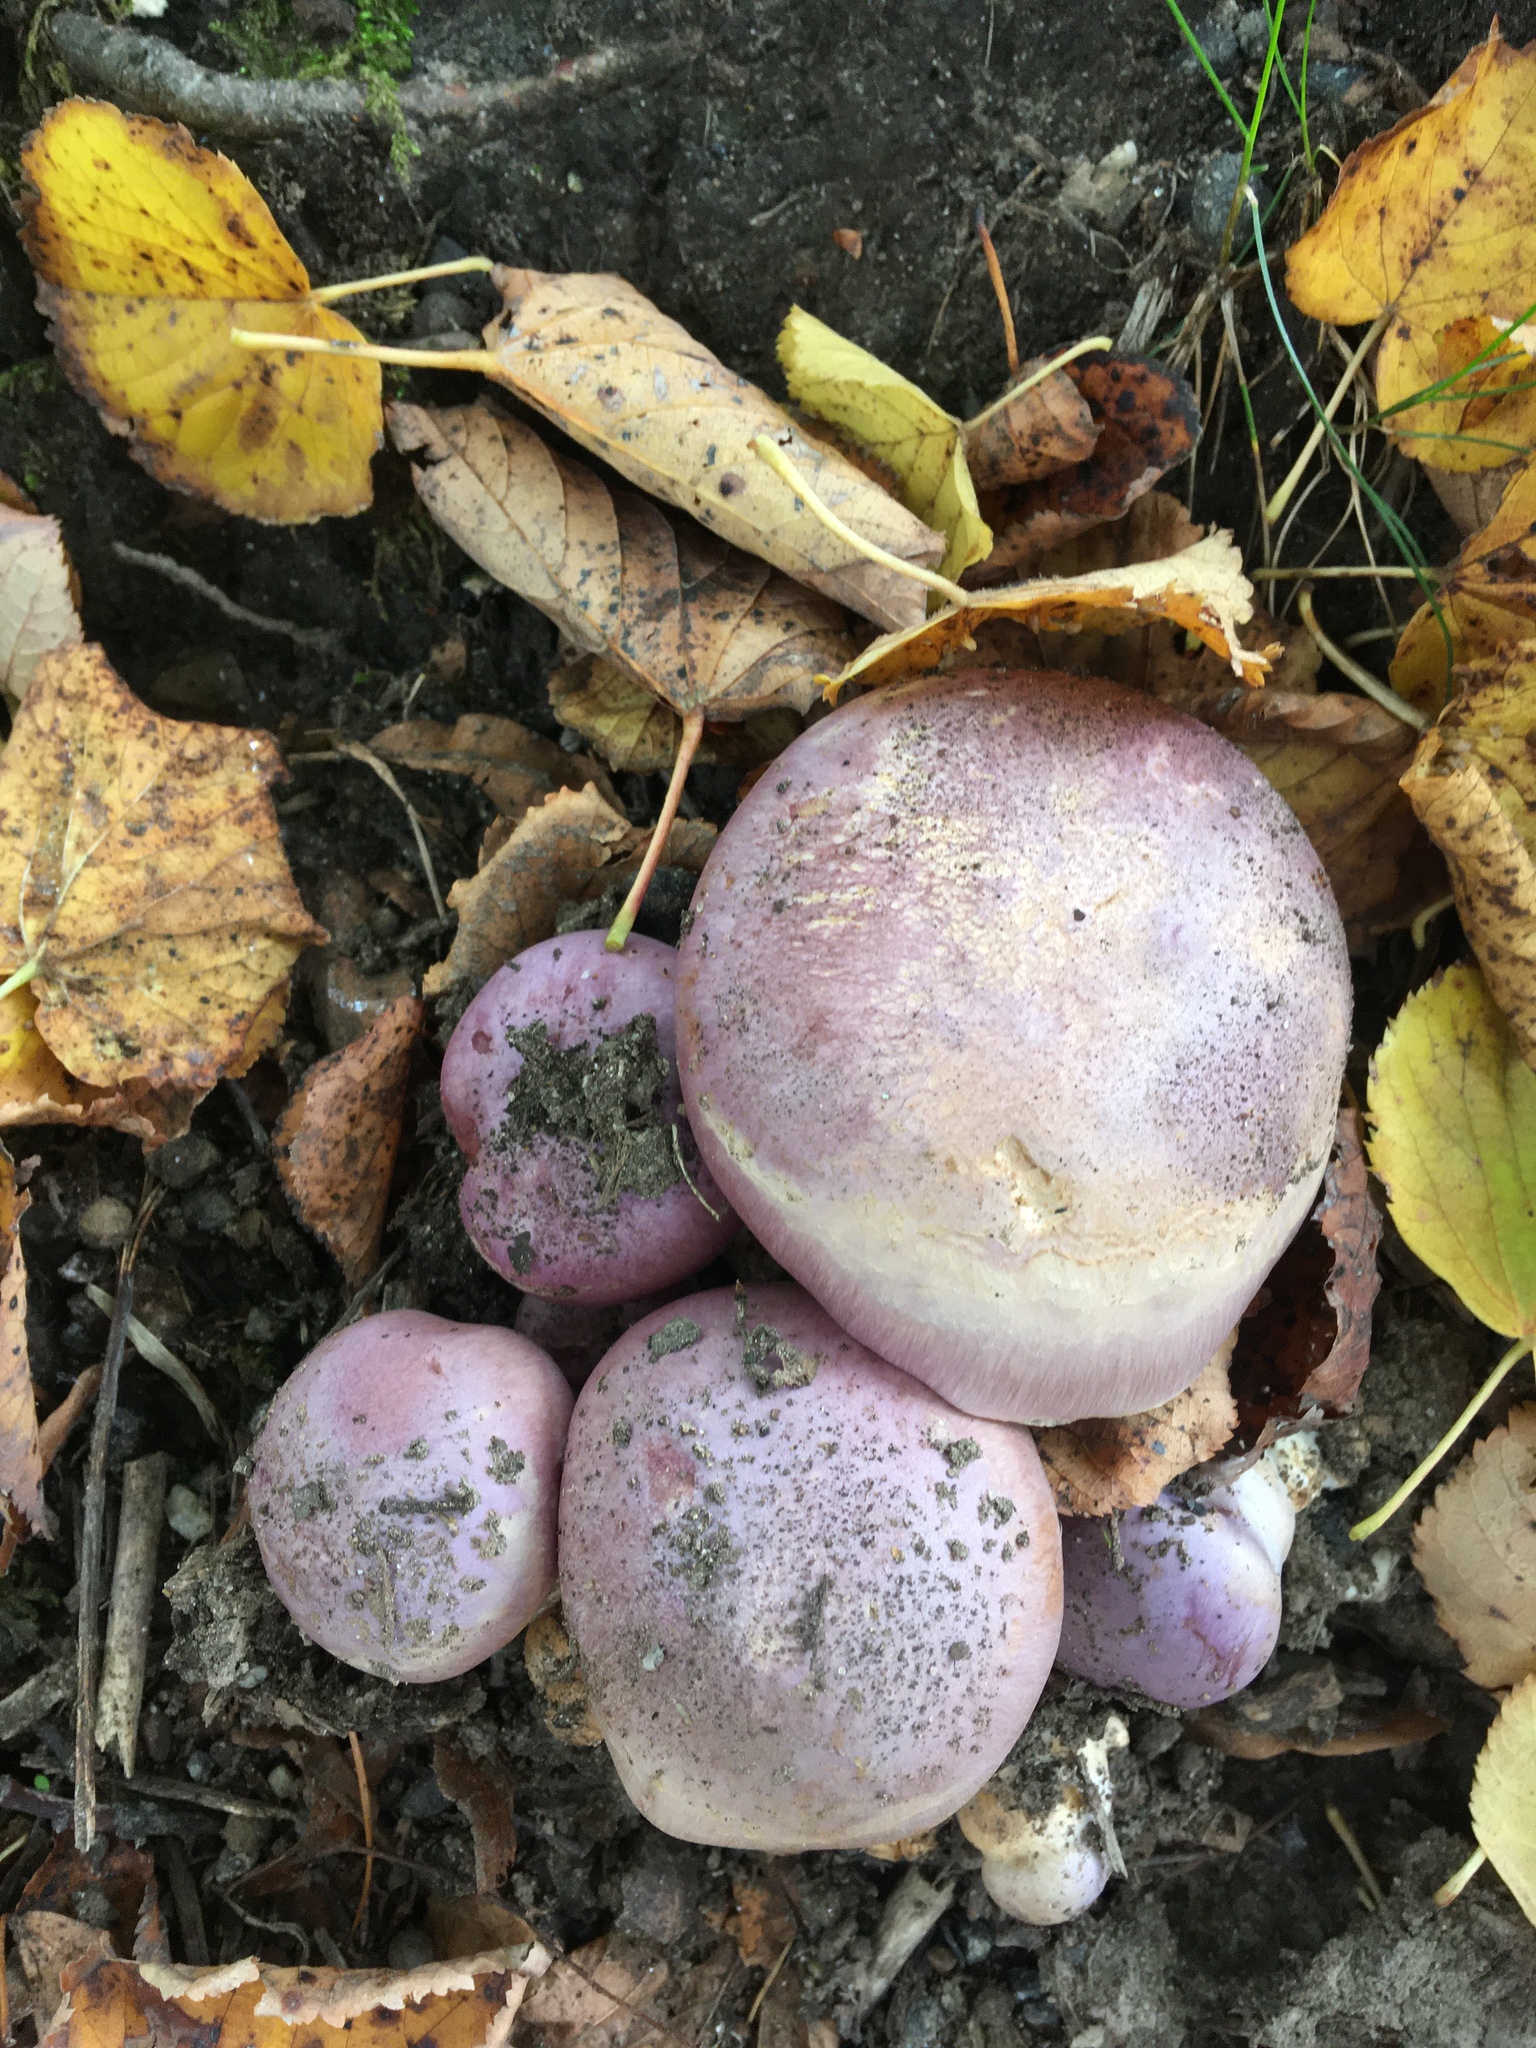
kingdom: Fungi
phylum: Basidiomycota
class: Agaricomycetes
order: Agaricales
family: Cortinariaceae
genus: Phlegmacium
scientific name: Phlegmacium balteatocumatile
